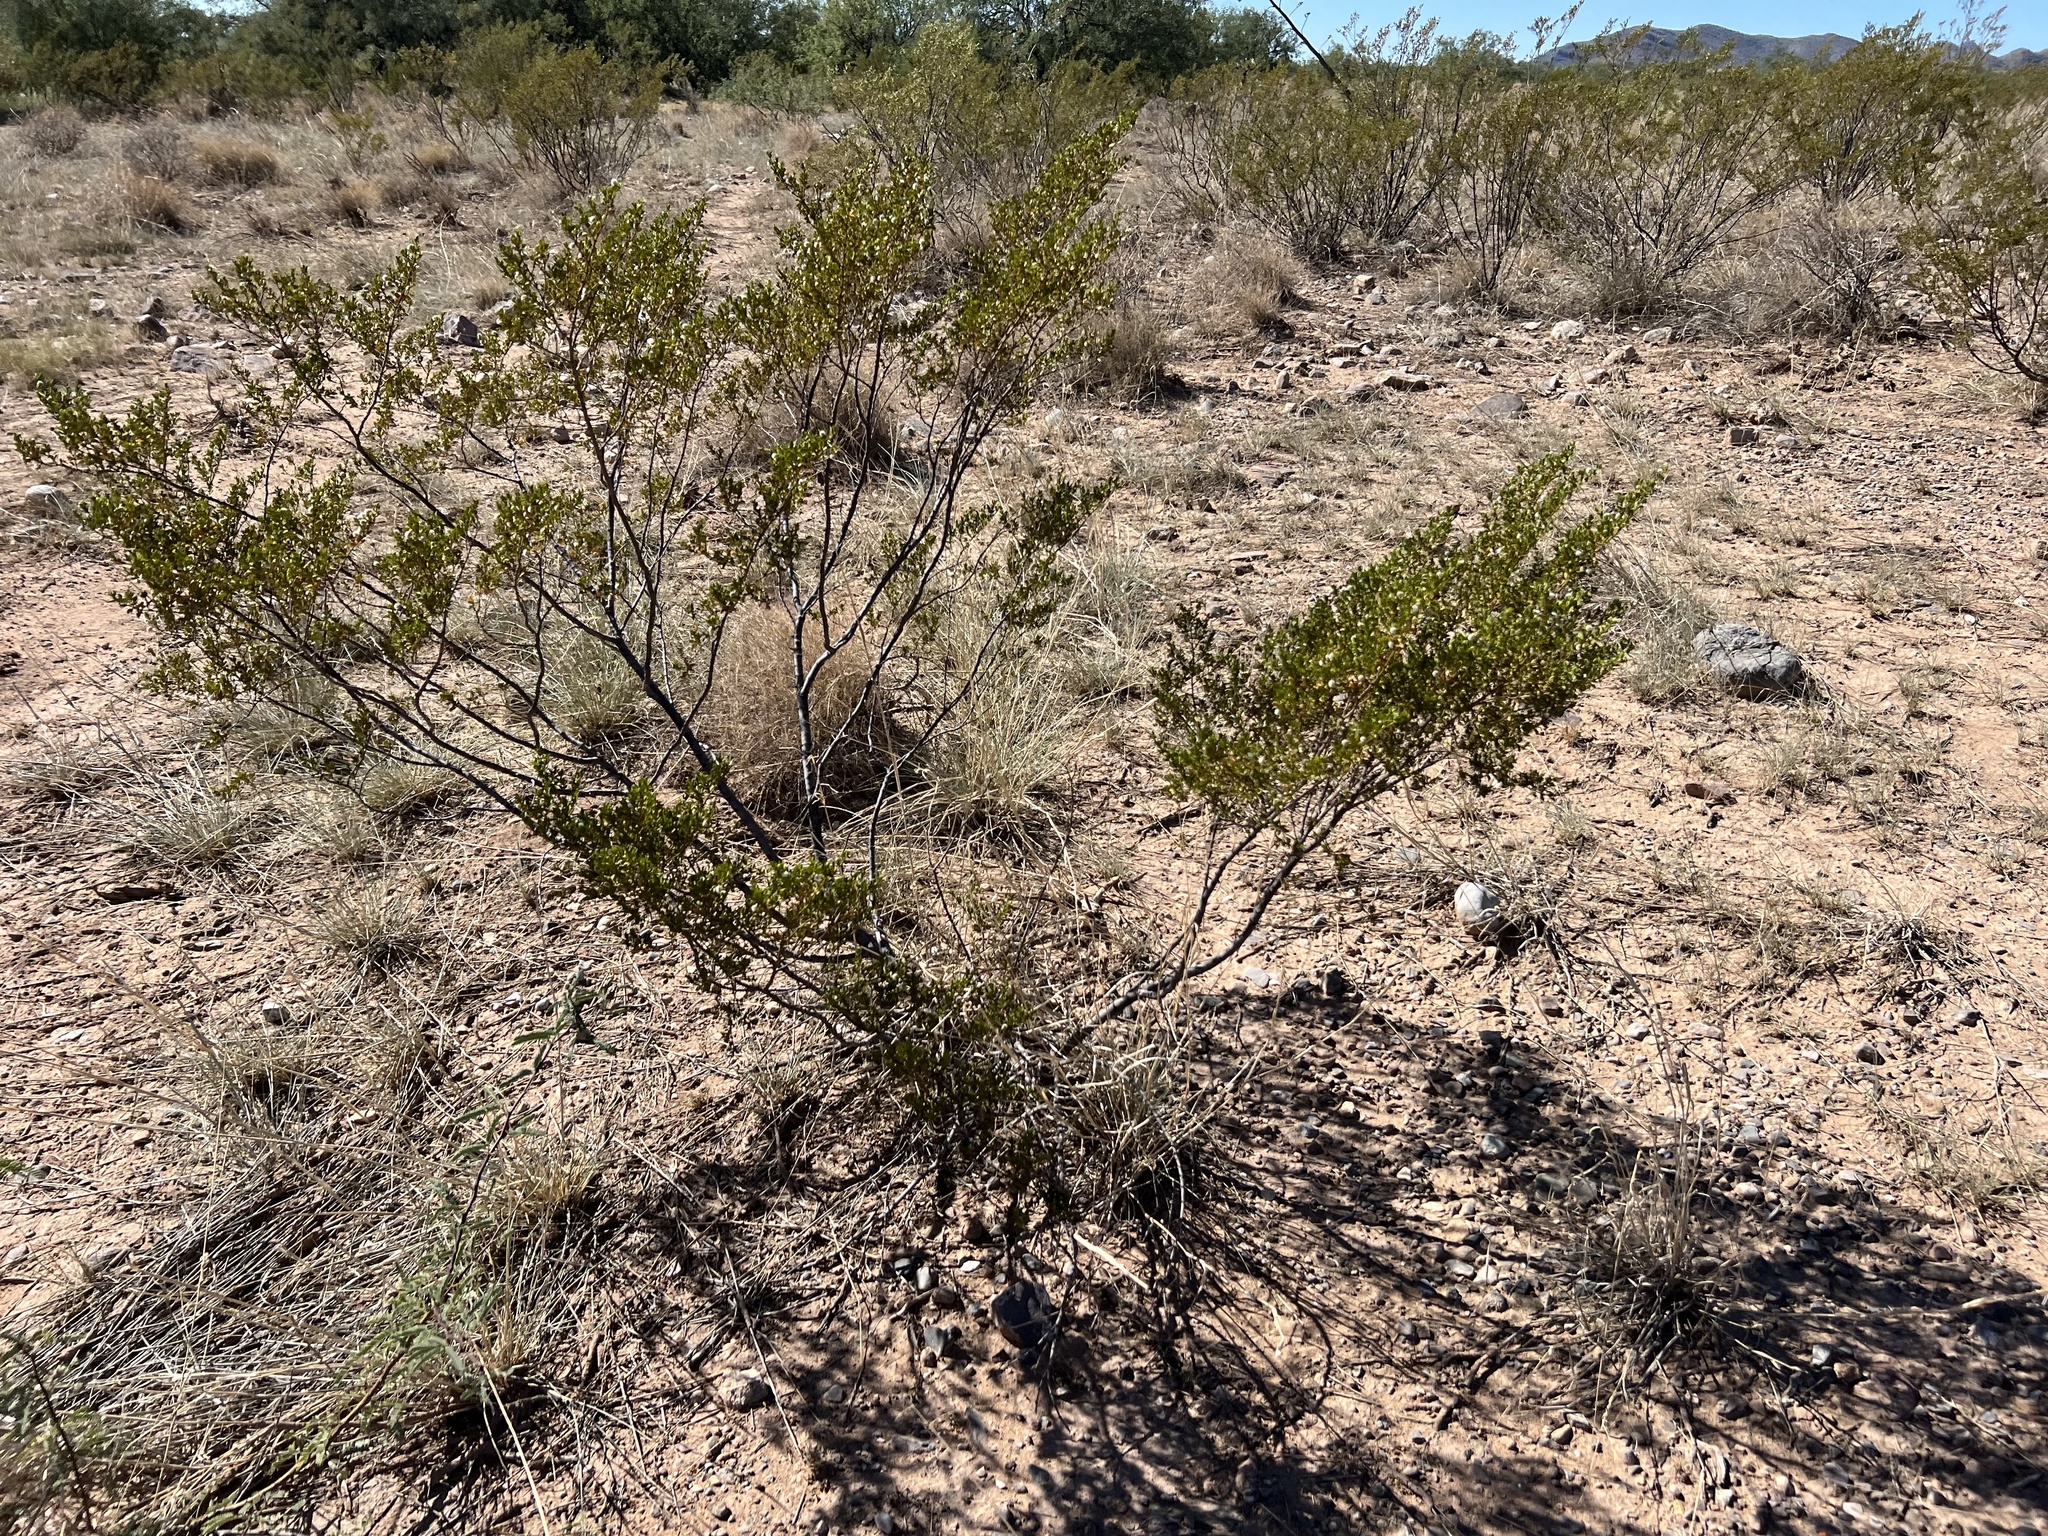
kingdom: Plantae
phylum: Tracheophyta
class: Magnoliopsida
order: Zygophyllales
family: Zygophyllaceae
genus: Larrea
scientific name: Larrea tridentata
